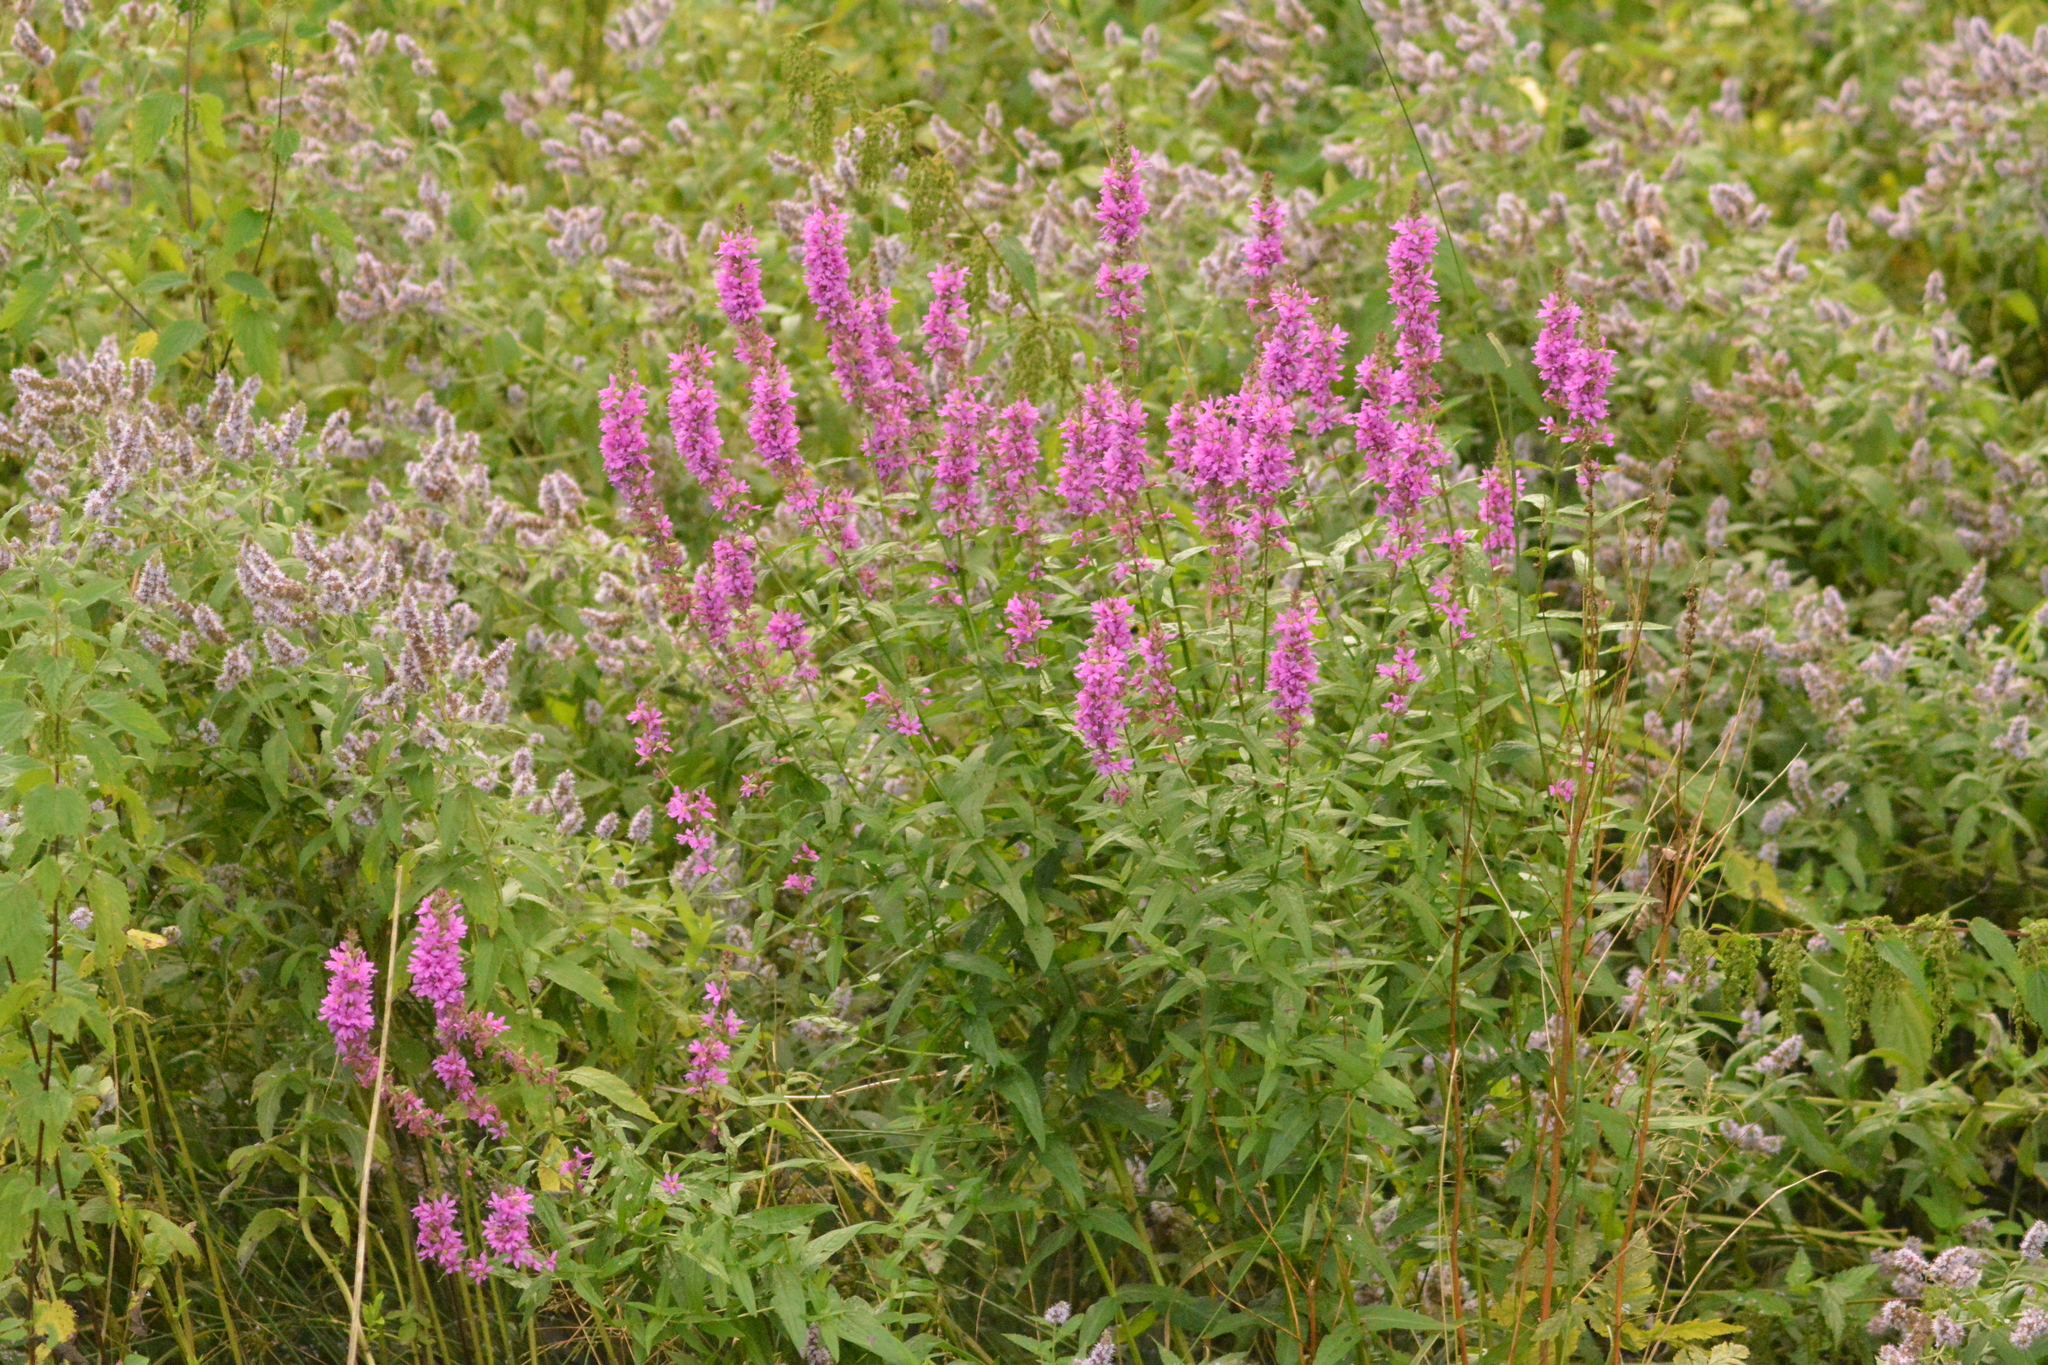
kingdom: Plantae
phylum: Tracheophyta
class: Magnoliopsida
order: Myrtales
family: Lythraceae
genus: Lythrum
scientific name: Lythrum salicaria
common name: Purple loosestrife
